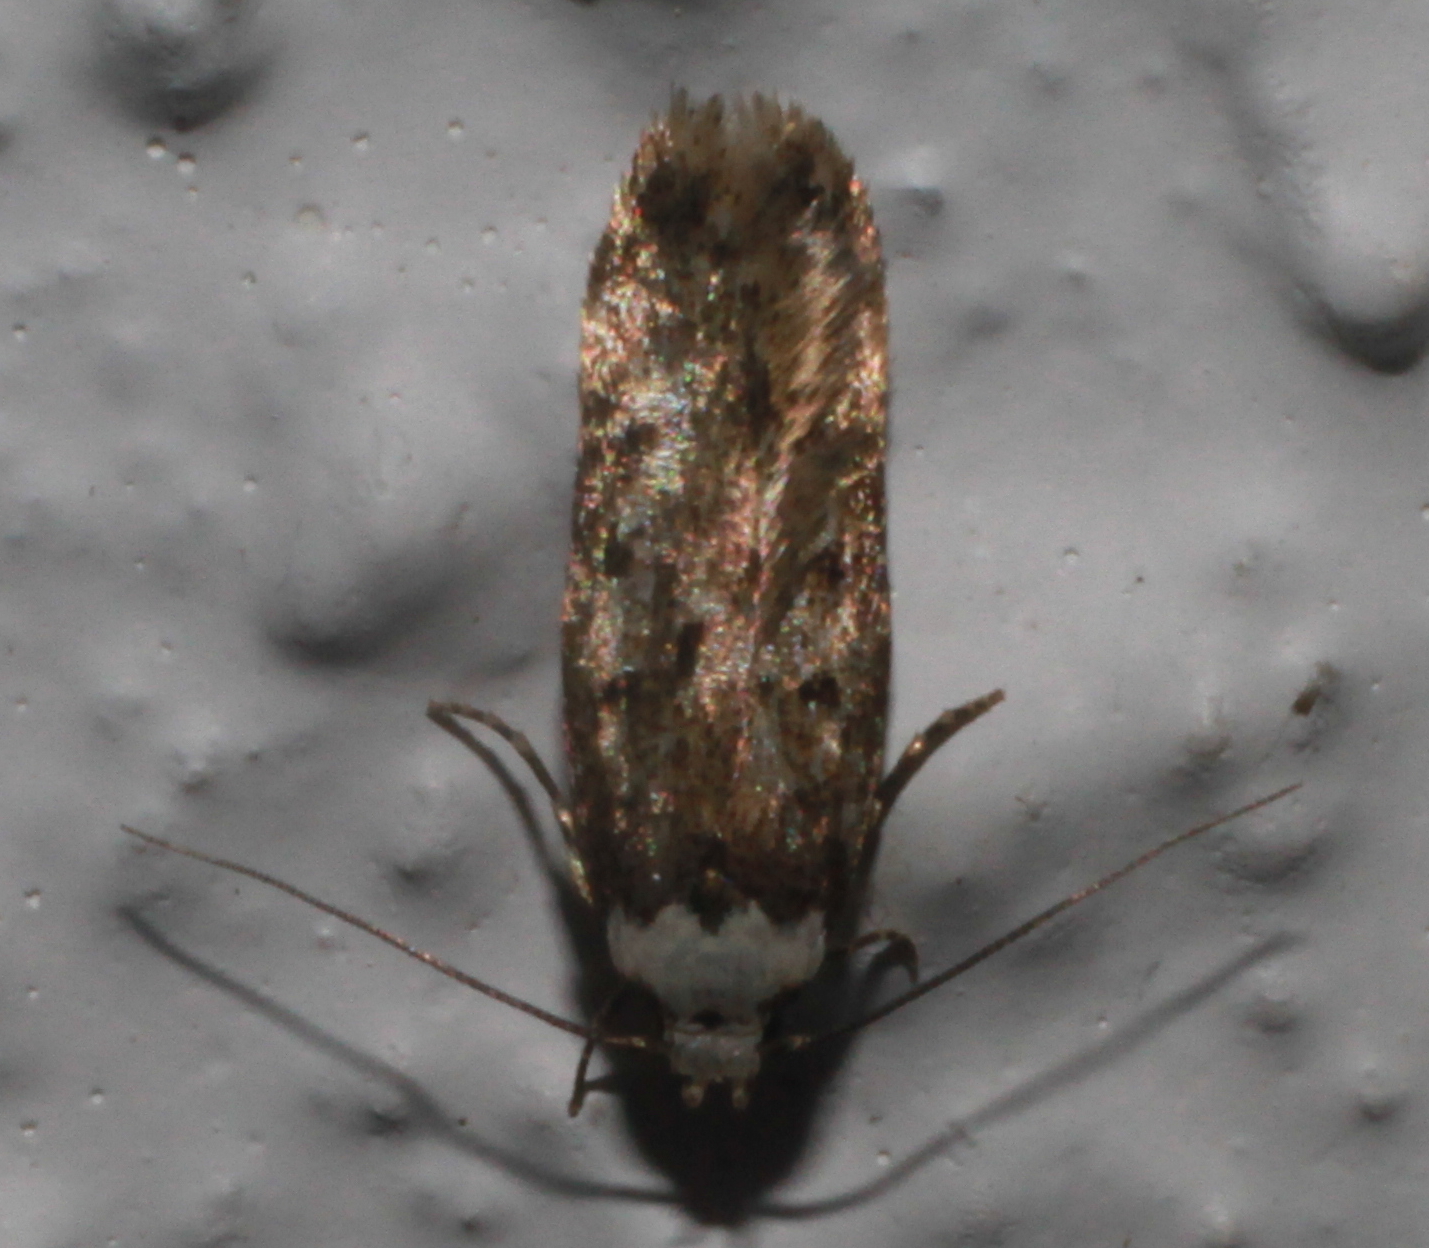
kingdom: Animalia
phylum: Arthropoda
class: Insecta
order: Lepidoptera
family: Oecophoridae
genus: Endrosis
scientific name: Endrosis sarcitrella
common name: White-shouldered house moth
